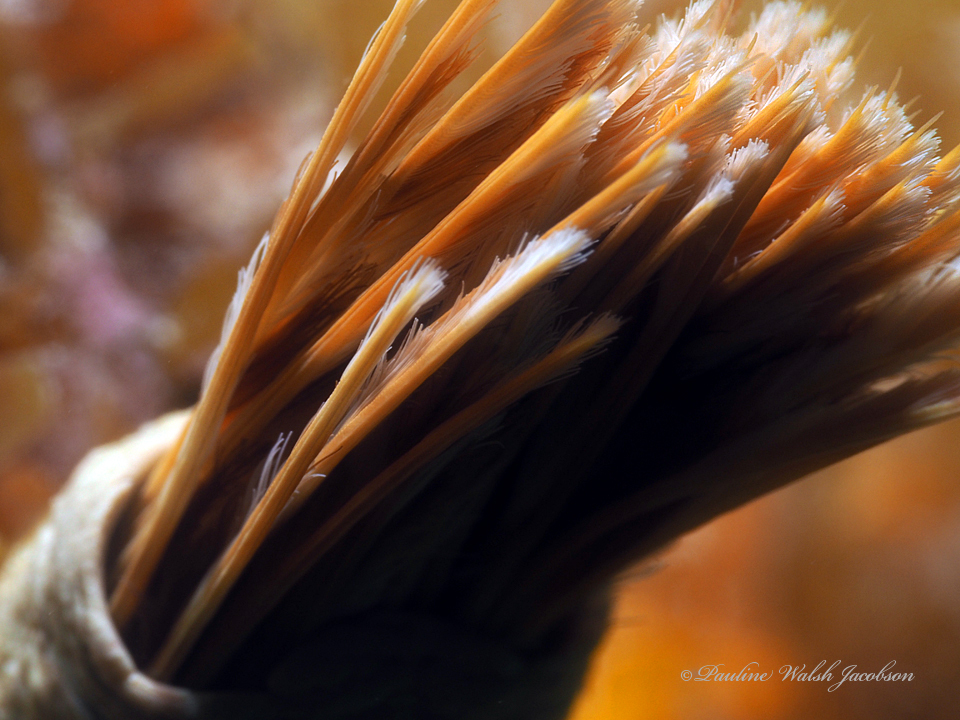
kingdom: Animalia
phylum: Annelida
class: Polychaeta
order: Sabellida
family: Sabellidae
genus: Sabellastarte
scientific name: Sabellastarte magnifica
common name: Giant feather-duster worm
